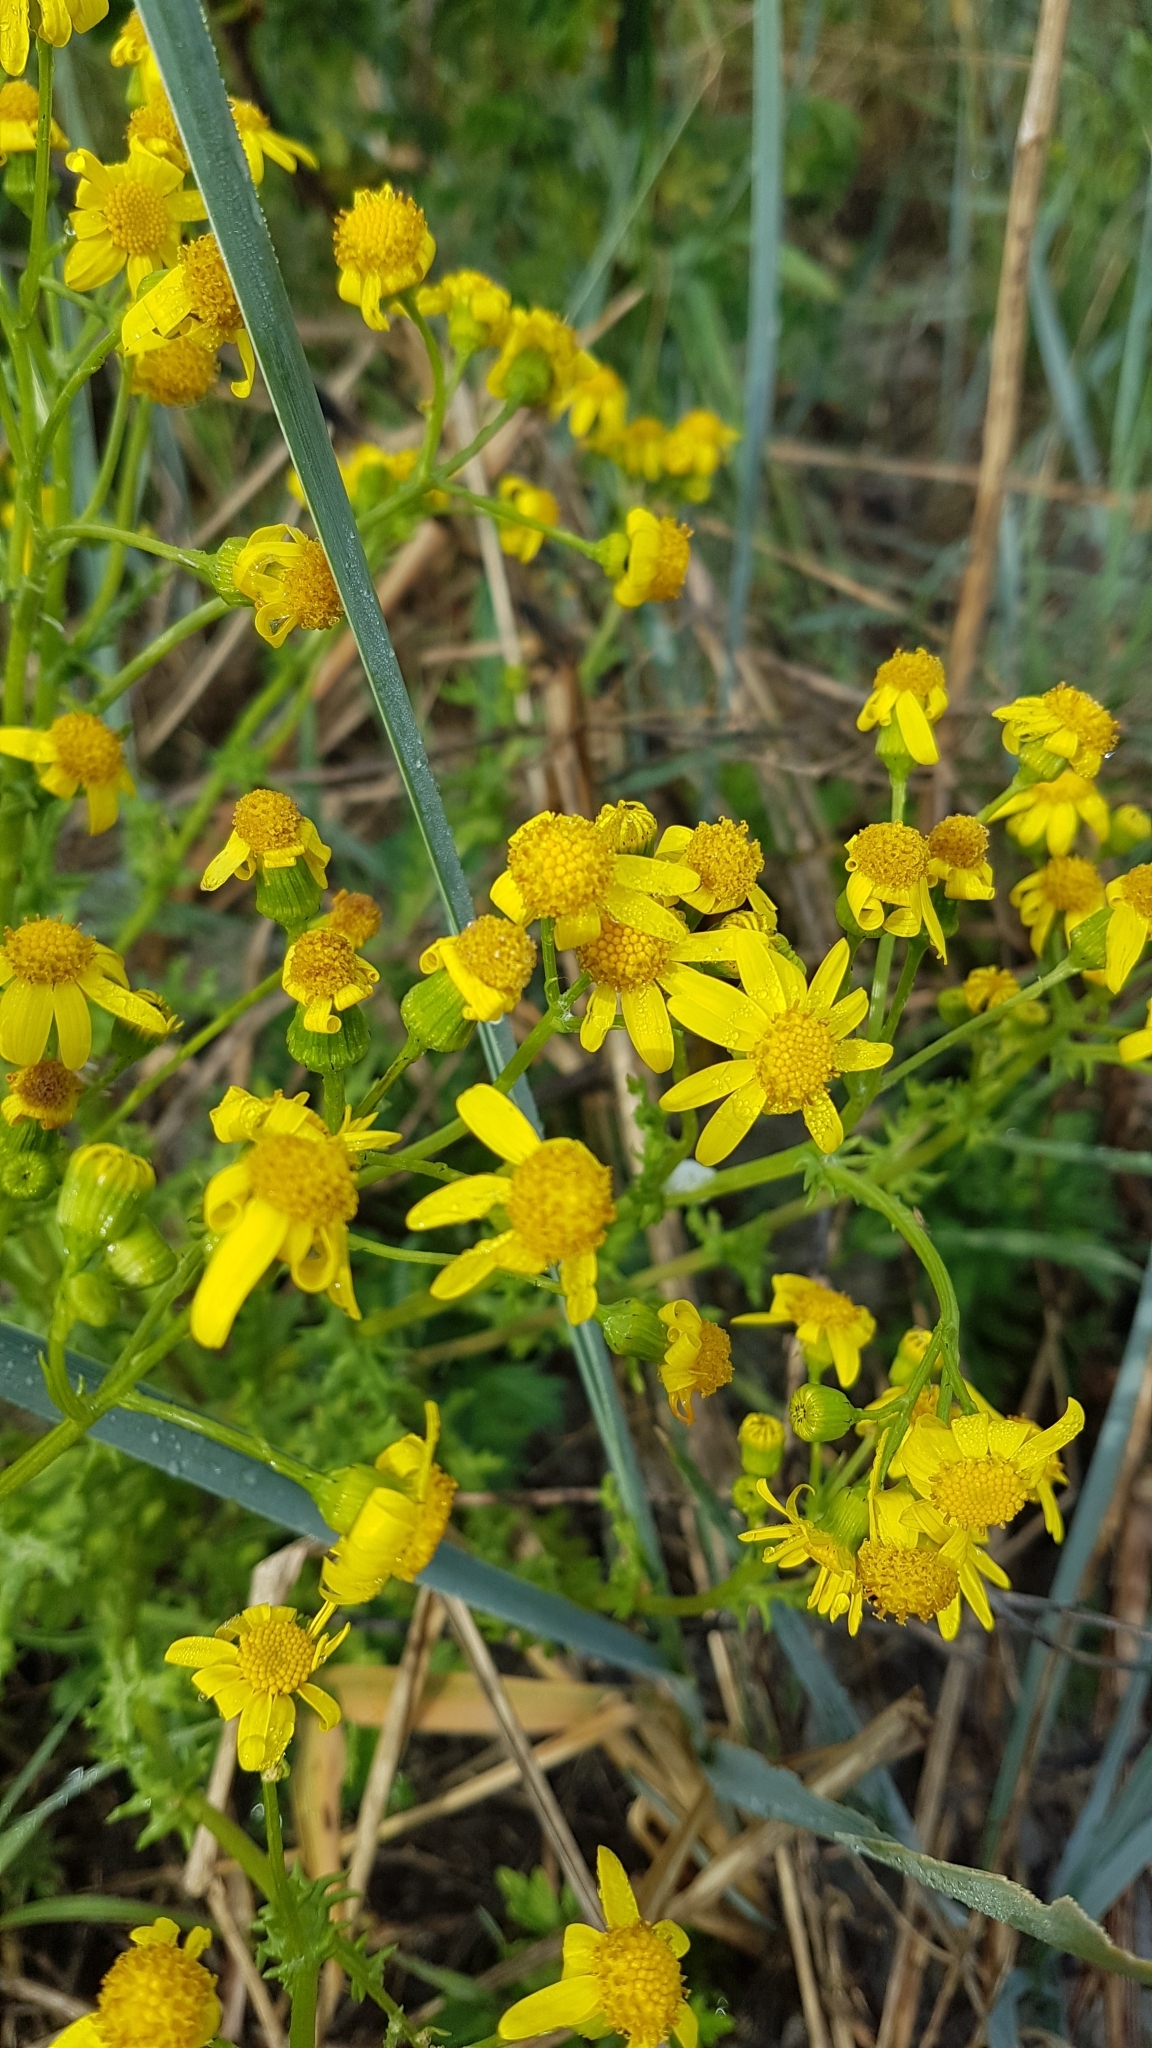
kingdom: Plantae
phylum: Tracheophyta
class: Magnoliopsida
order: Asterales
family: Asteraceae
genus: Senecio
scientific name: Senecio vernalis
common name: Eastern groundsel
